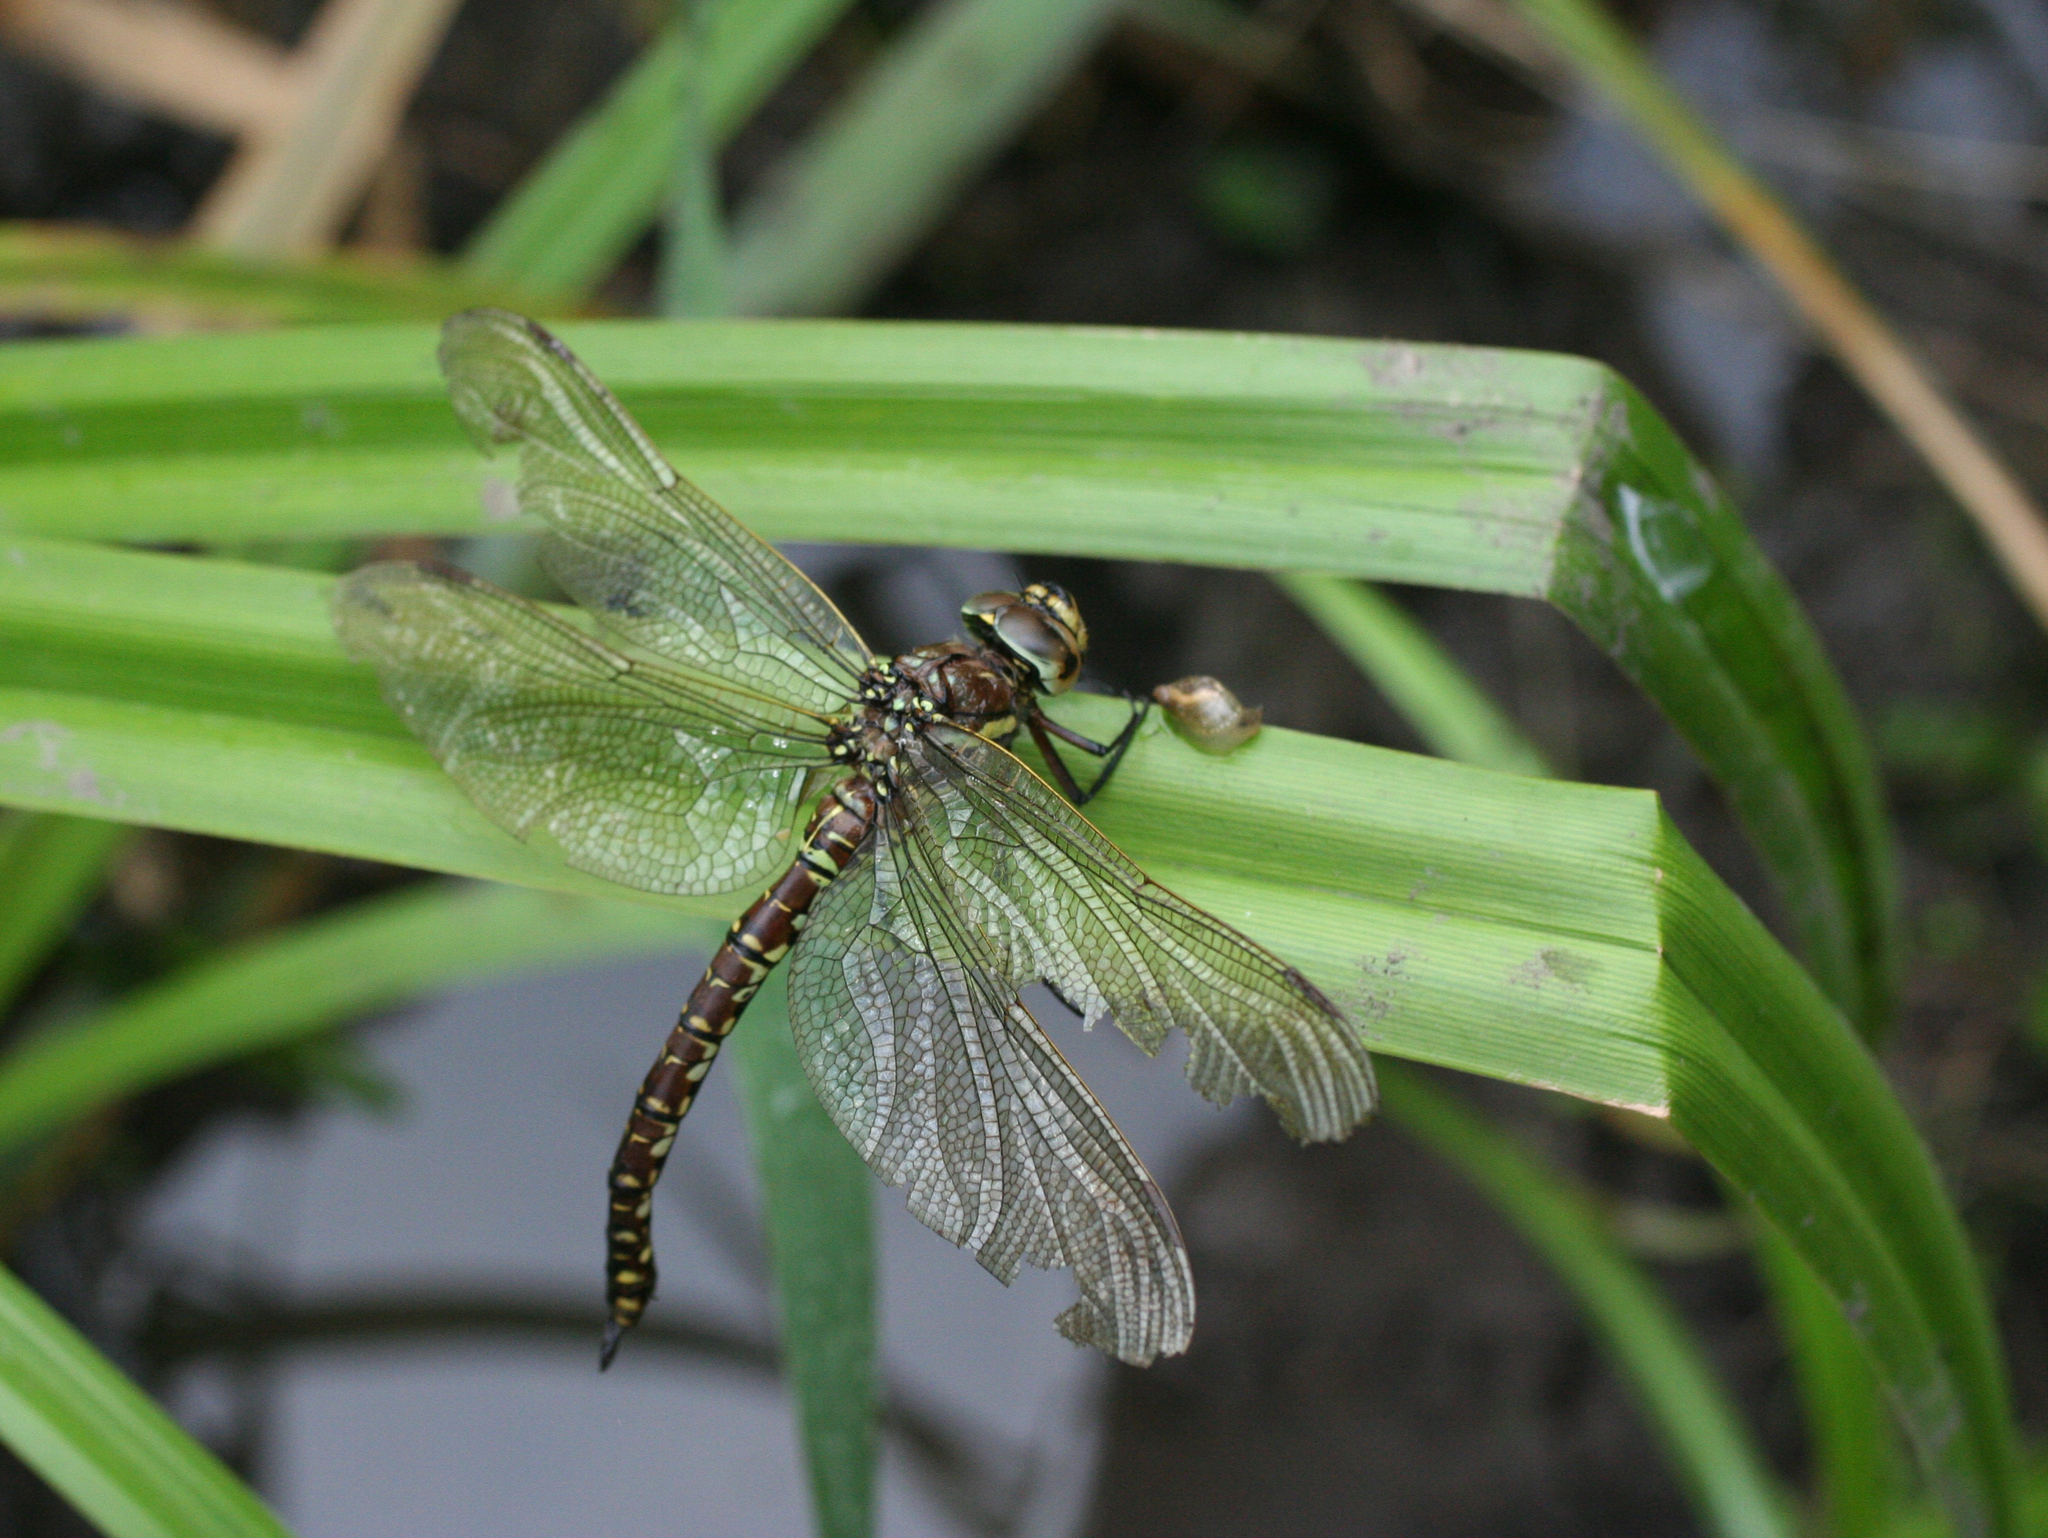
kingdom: Animalia
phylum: Arthropoda
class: Insecta
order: Odonata
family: Aeshnidae
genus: Aeshna
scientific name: Aeshna juncea
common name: Moorland hawker
